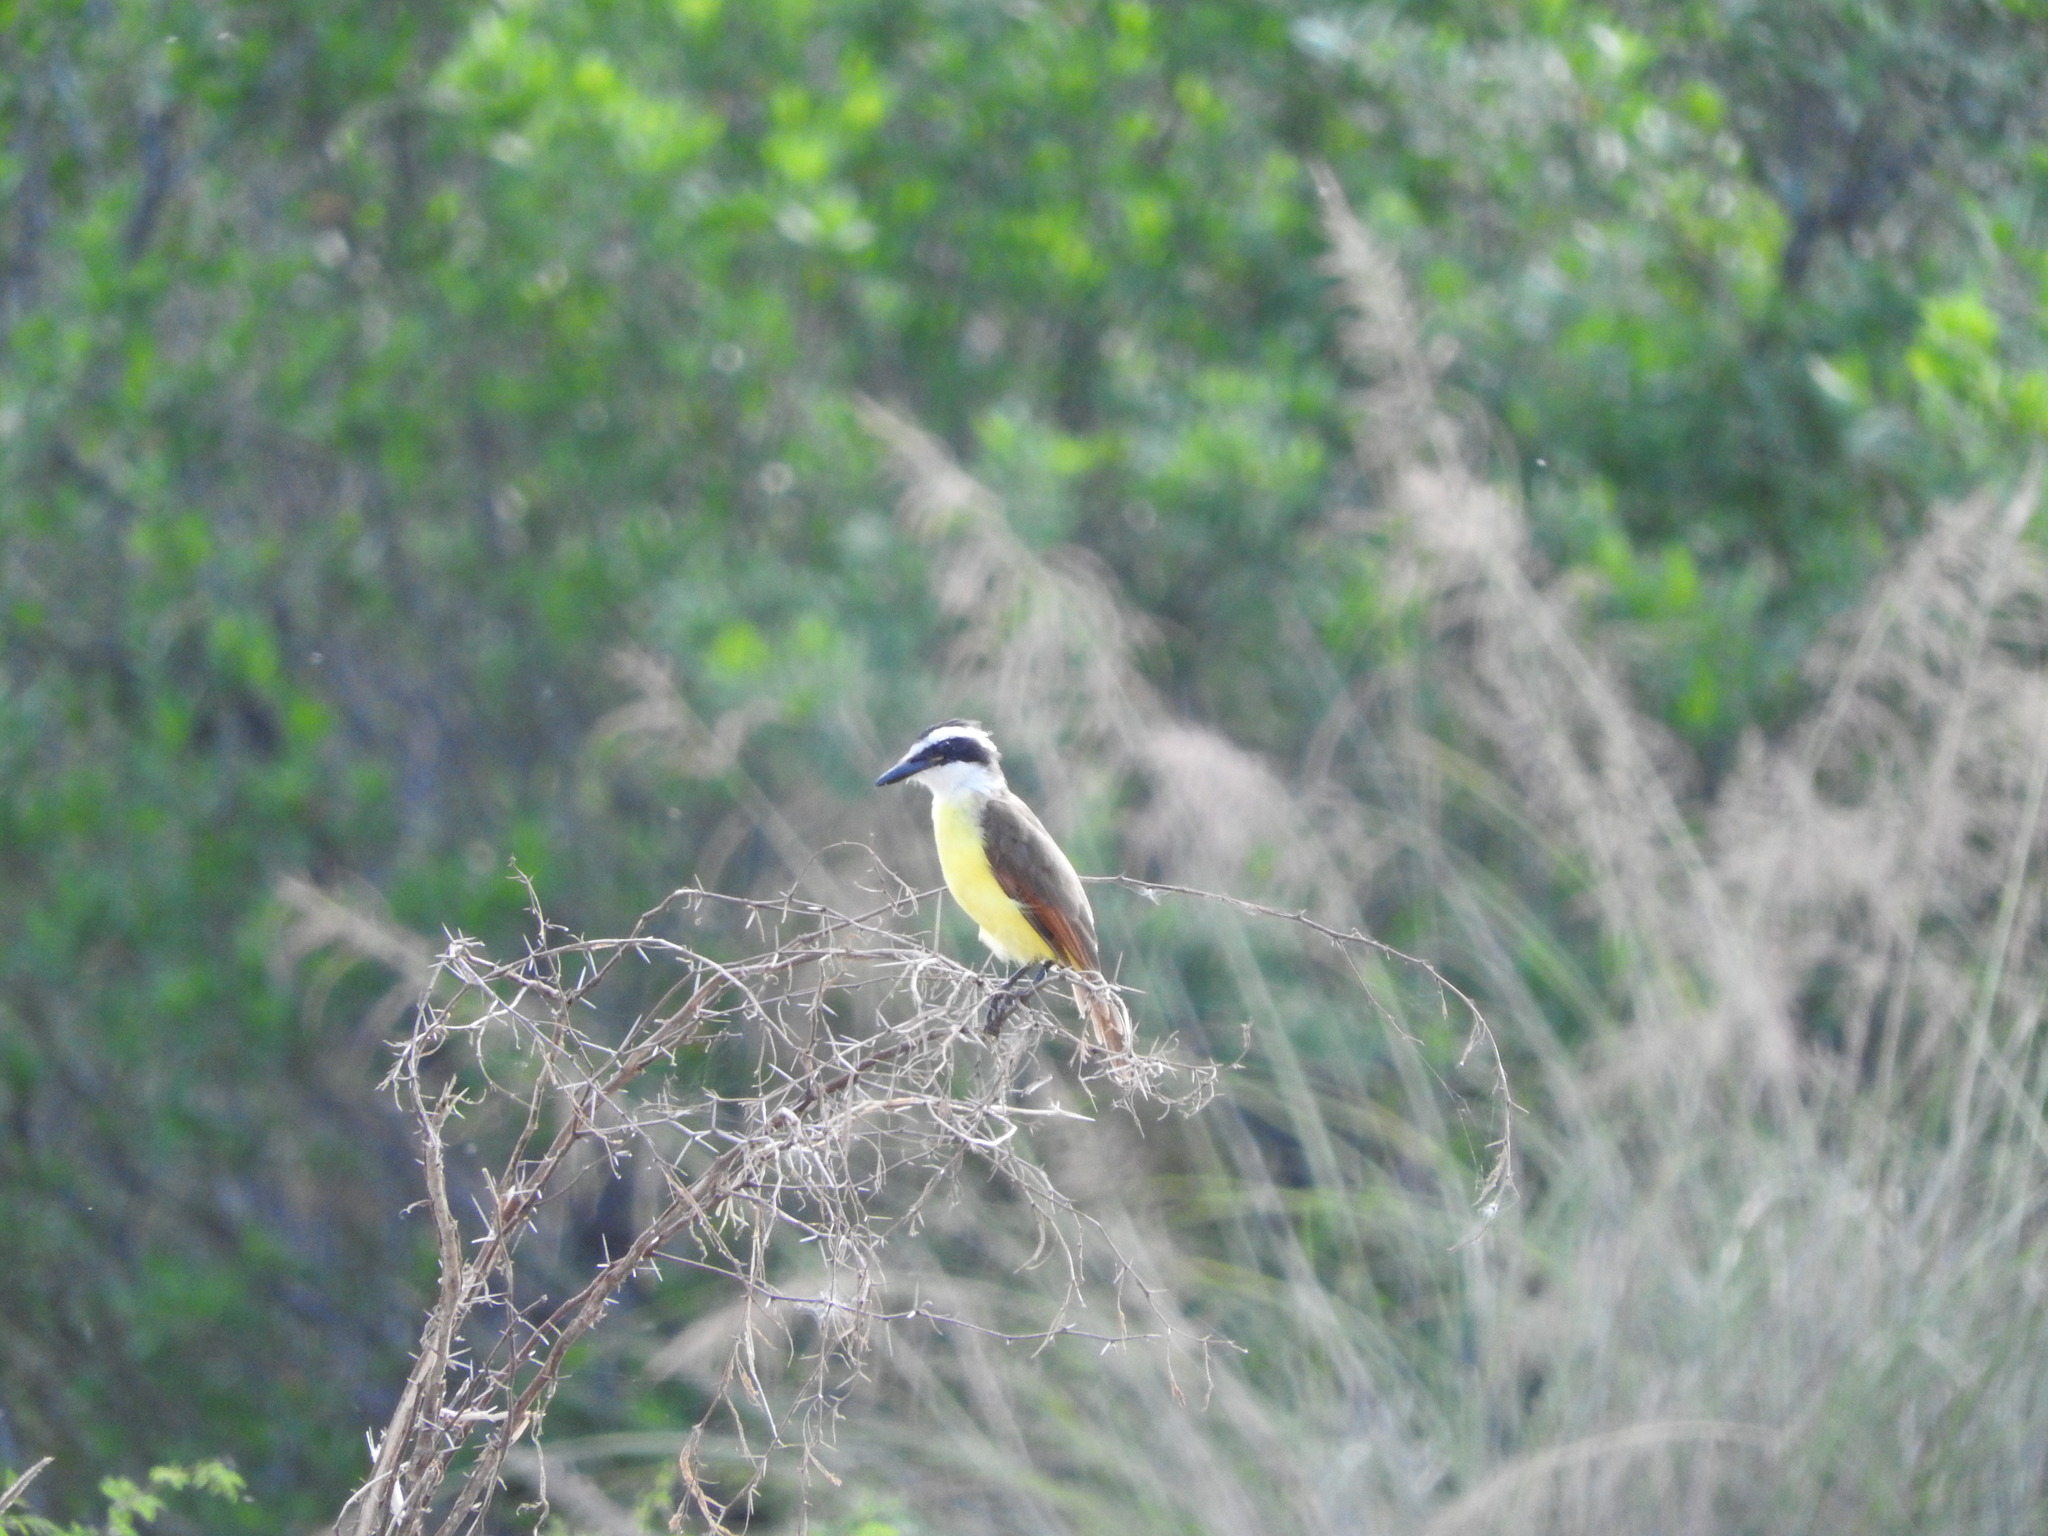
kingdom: Animalia
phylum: Chordata
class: Aves
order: Passeriformes
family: Tyrannidae
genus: Pitangus
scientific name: Pitangus sulphuratus
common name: Great kiskadee
